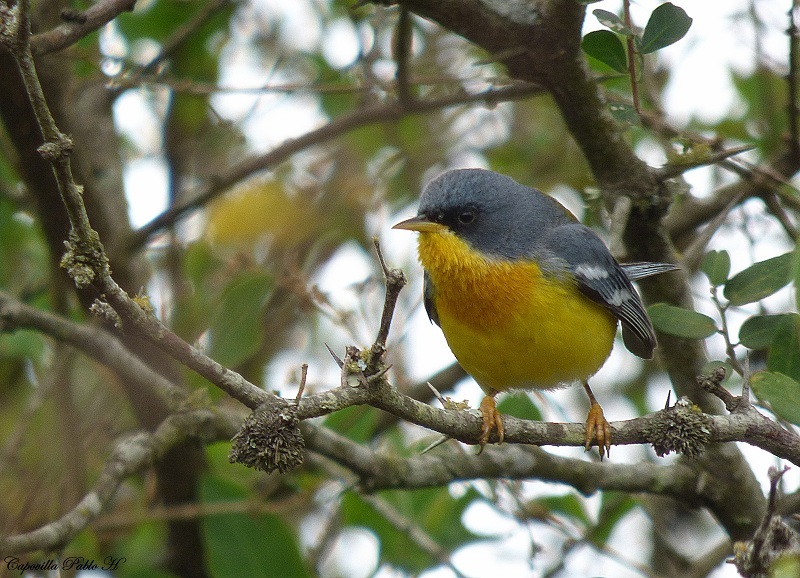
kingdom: Animalia
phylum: Chordata
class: Aves
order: Passeriformes
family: Parulidae
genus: Setophaga
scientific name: Setophaga pitiayumi
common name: Tropical parula
